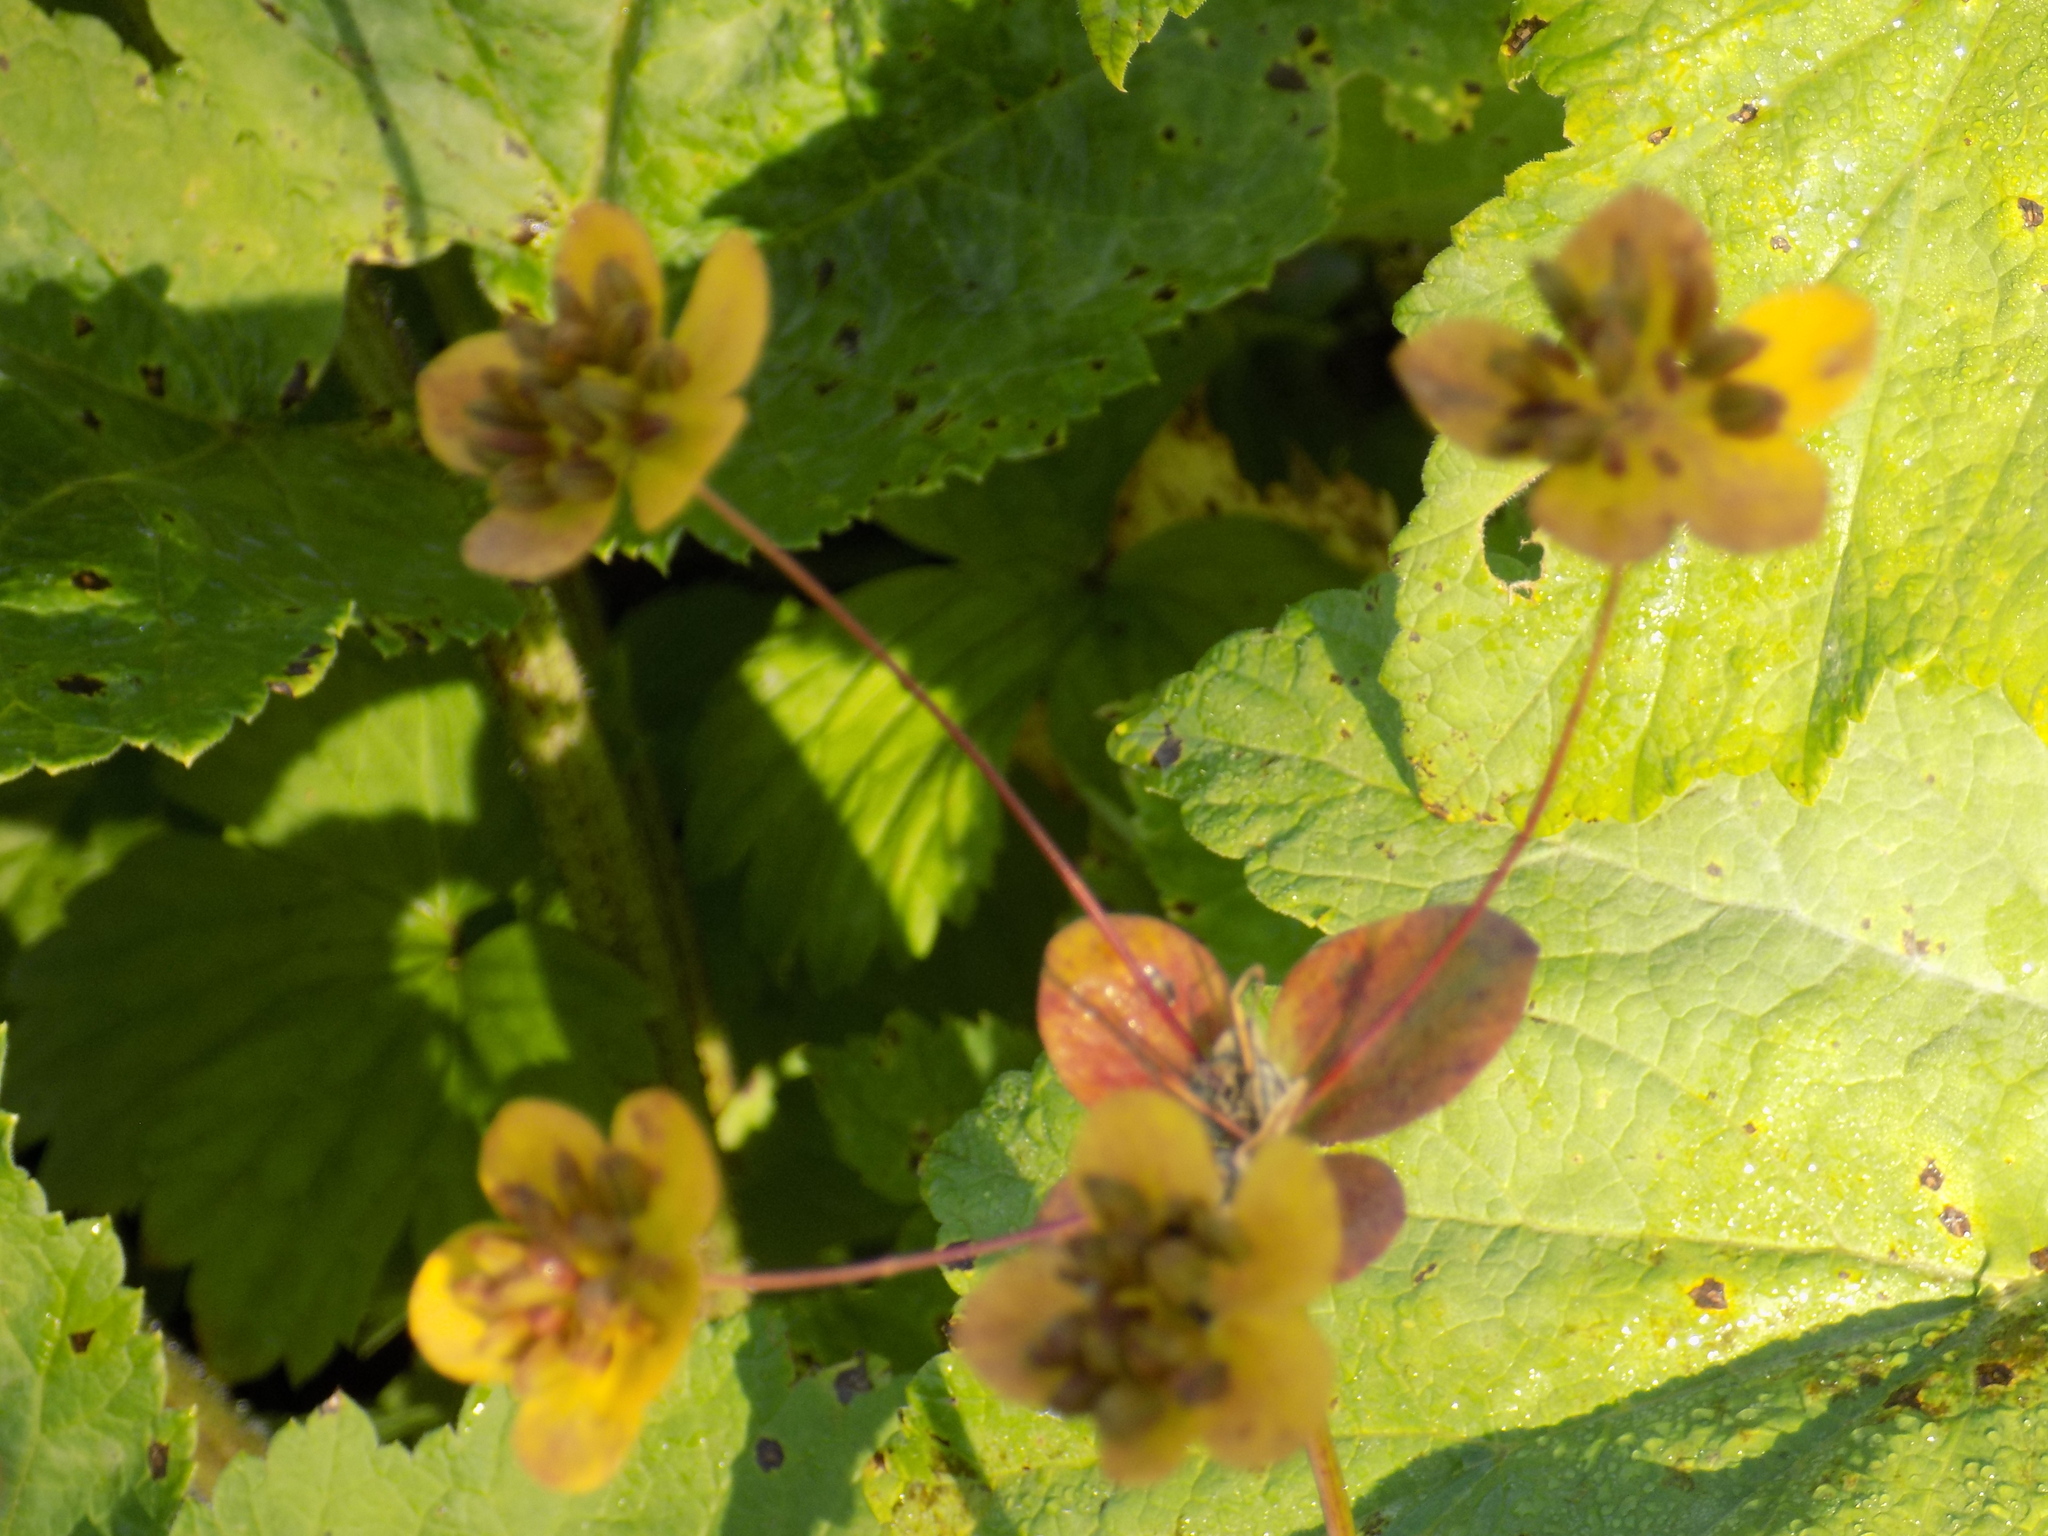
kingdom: Plantae
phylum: Tracheophyta
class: Magnoliopsida
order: Apiales
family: Apiaceae
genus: Bupleurum
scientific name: Bupleurum aureum
